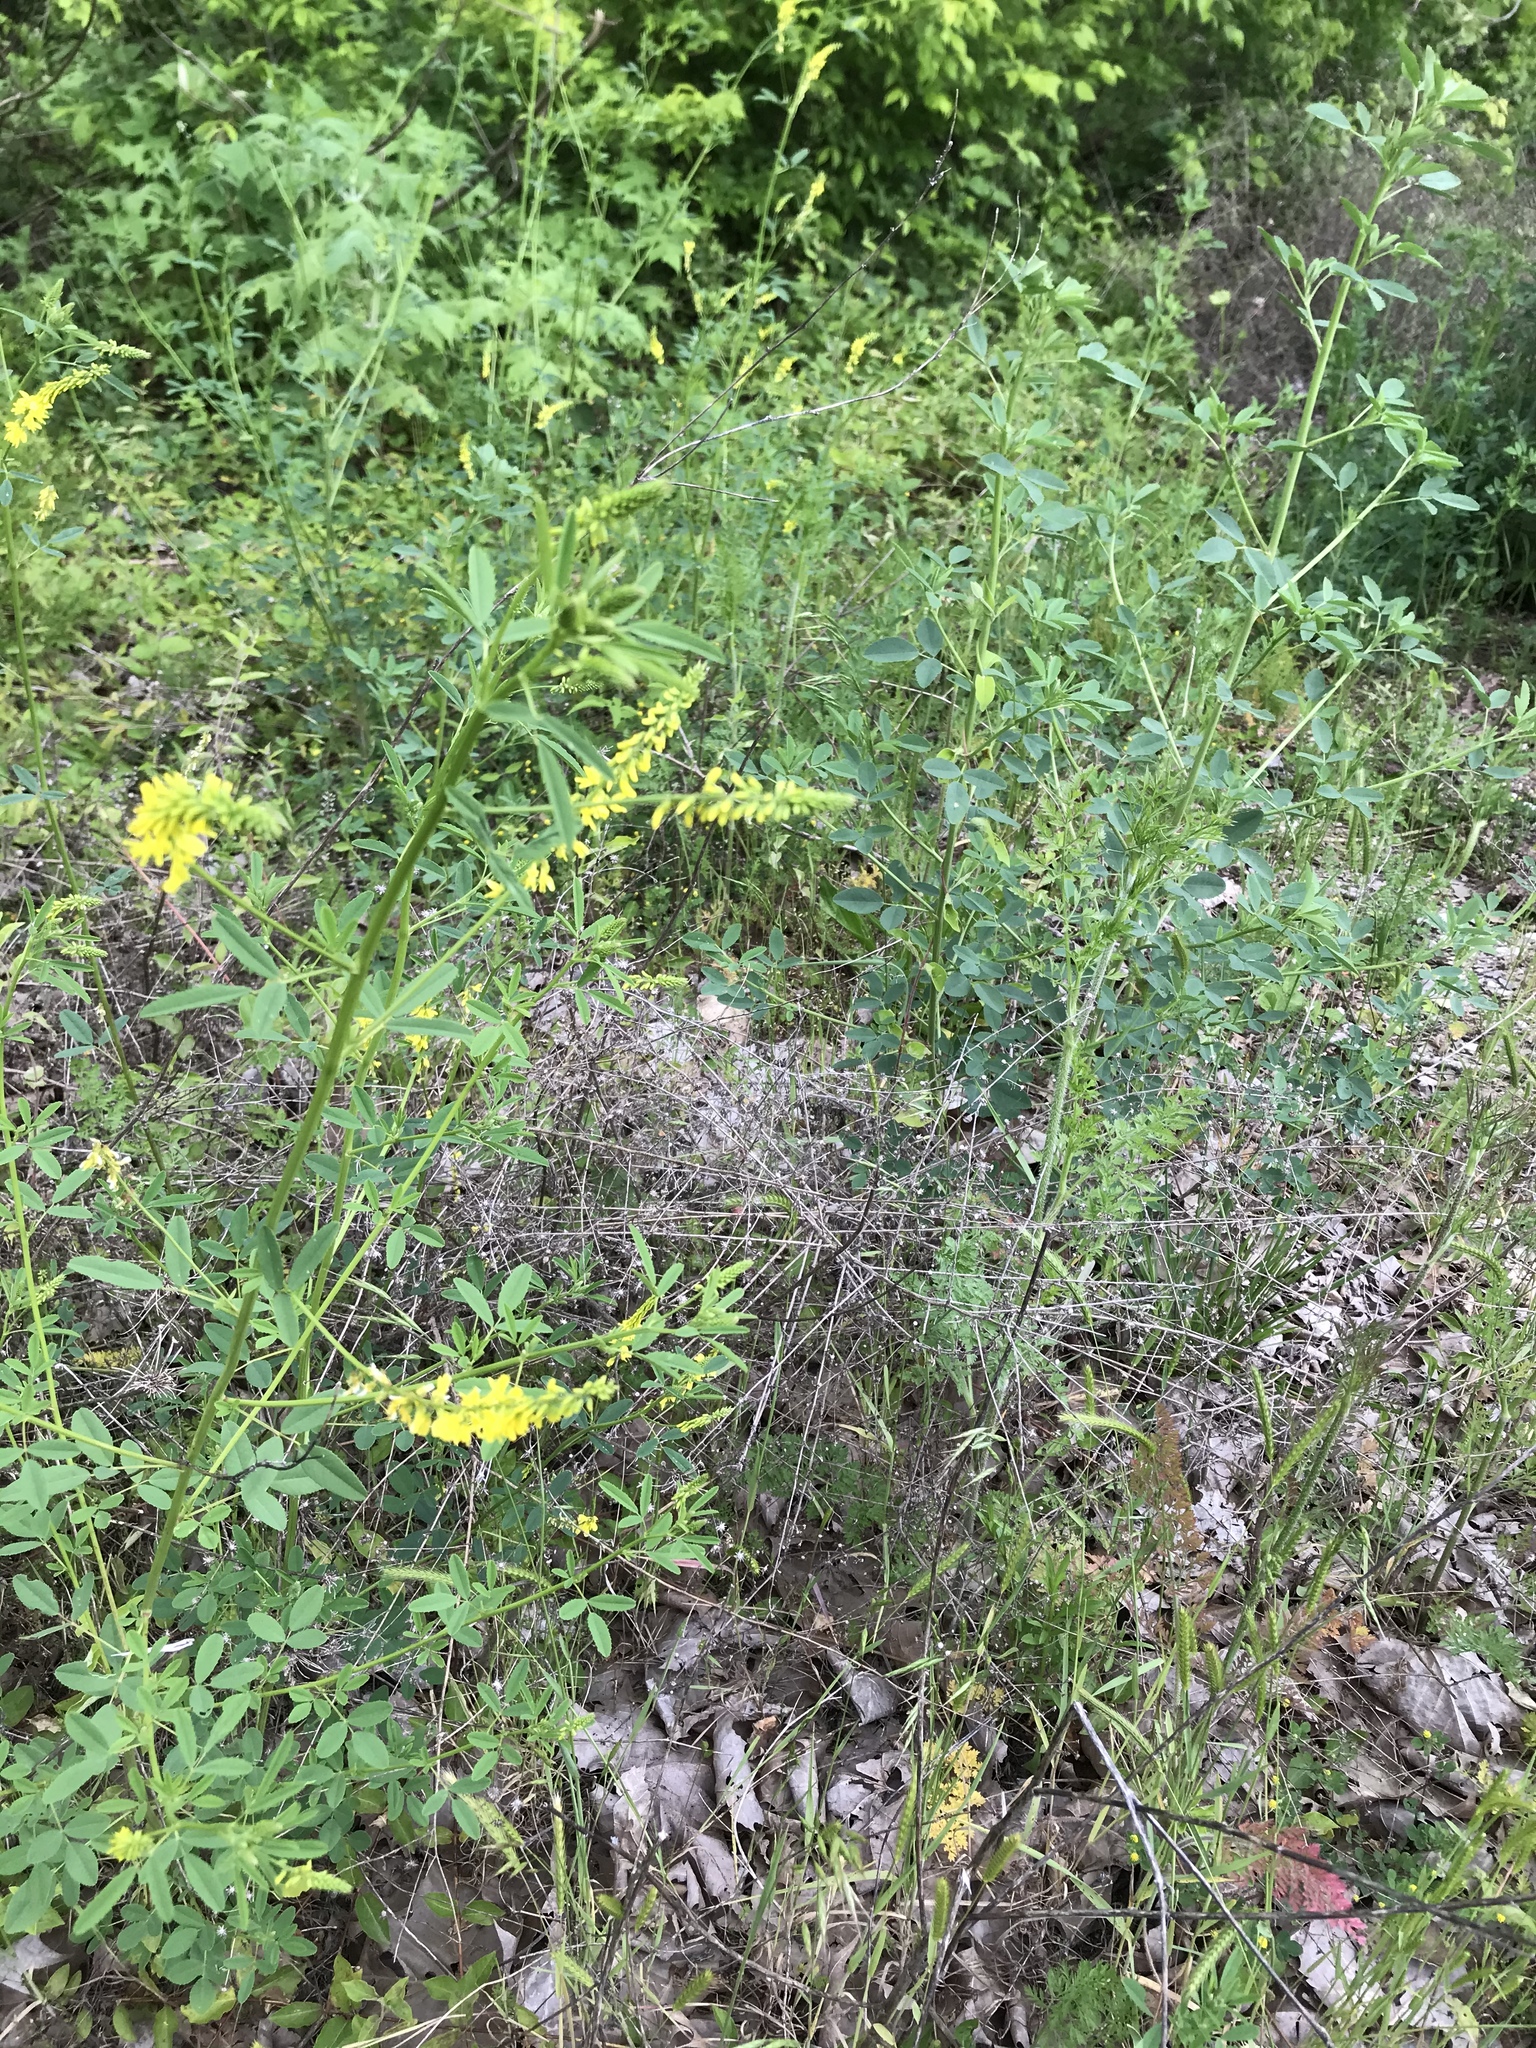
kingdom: Plantae
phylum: Tracheophyta
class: Magnoliopsida
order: Fabales
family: Fabaceae
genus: Melilotus
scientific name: Melilotus officinalis
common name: Sweetclover
